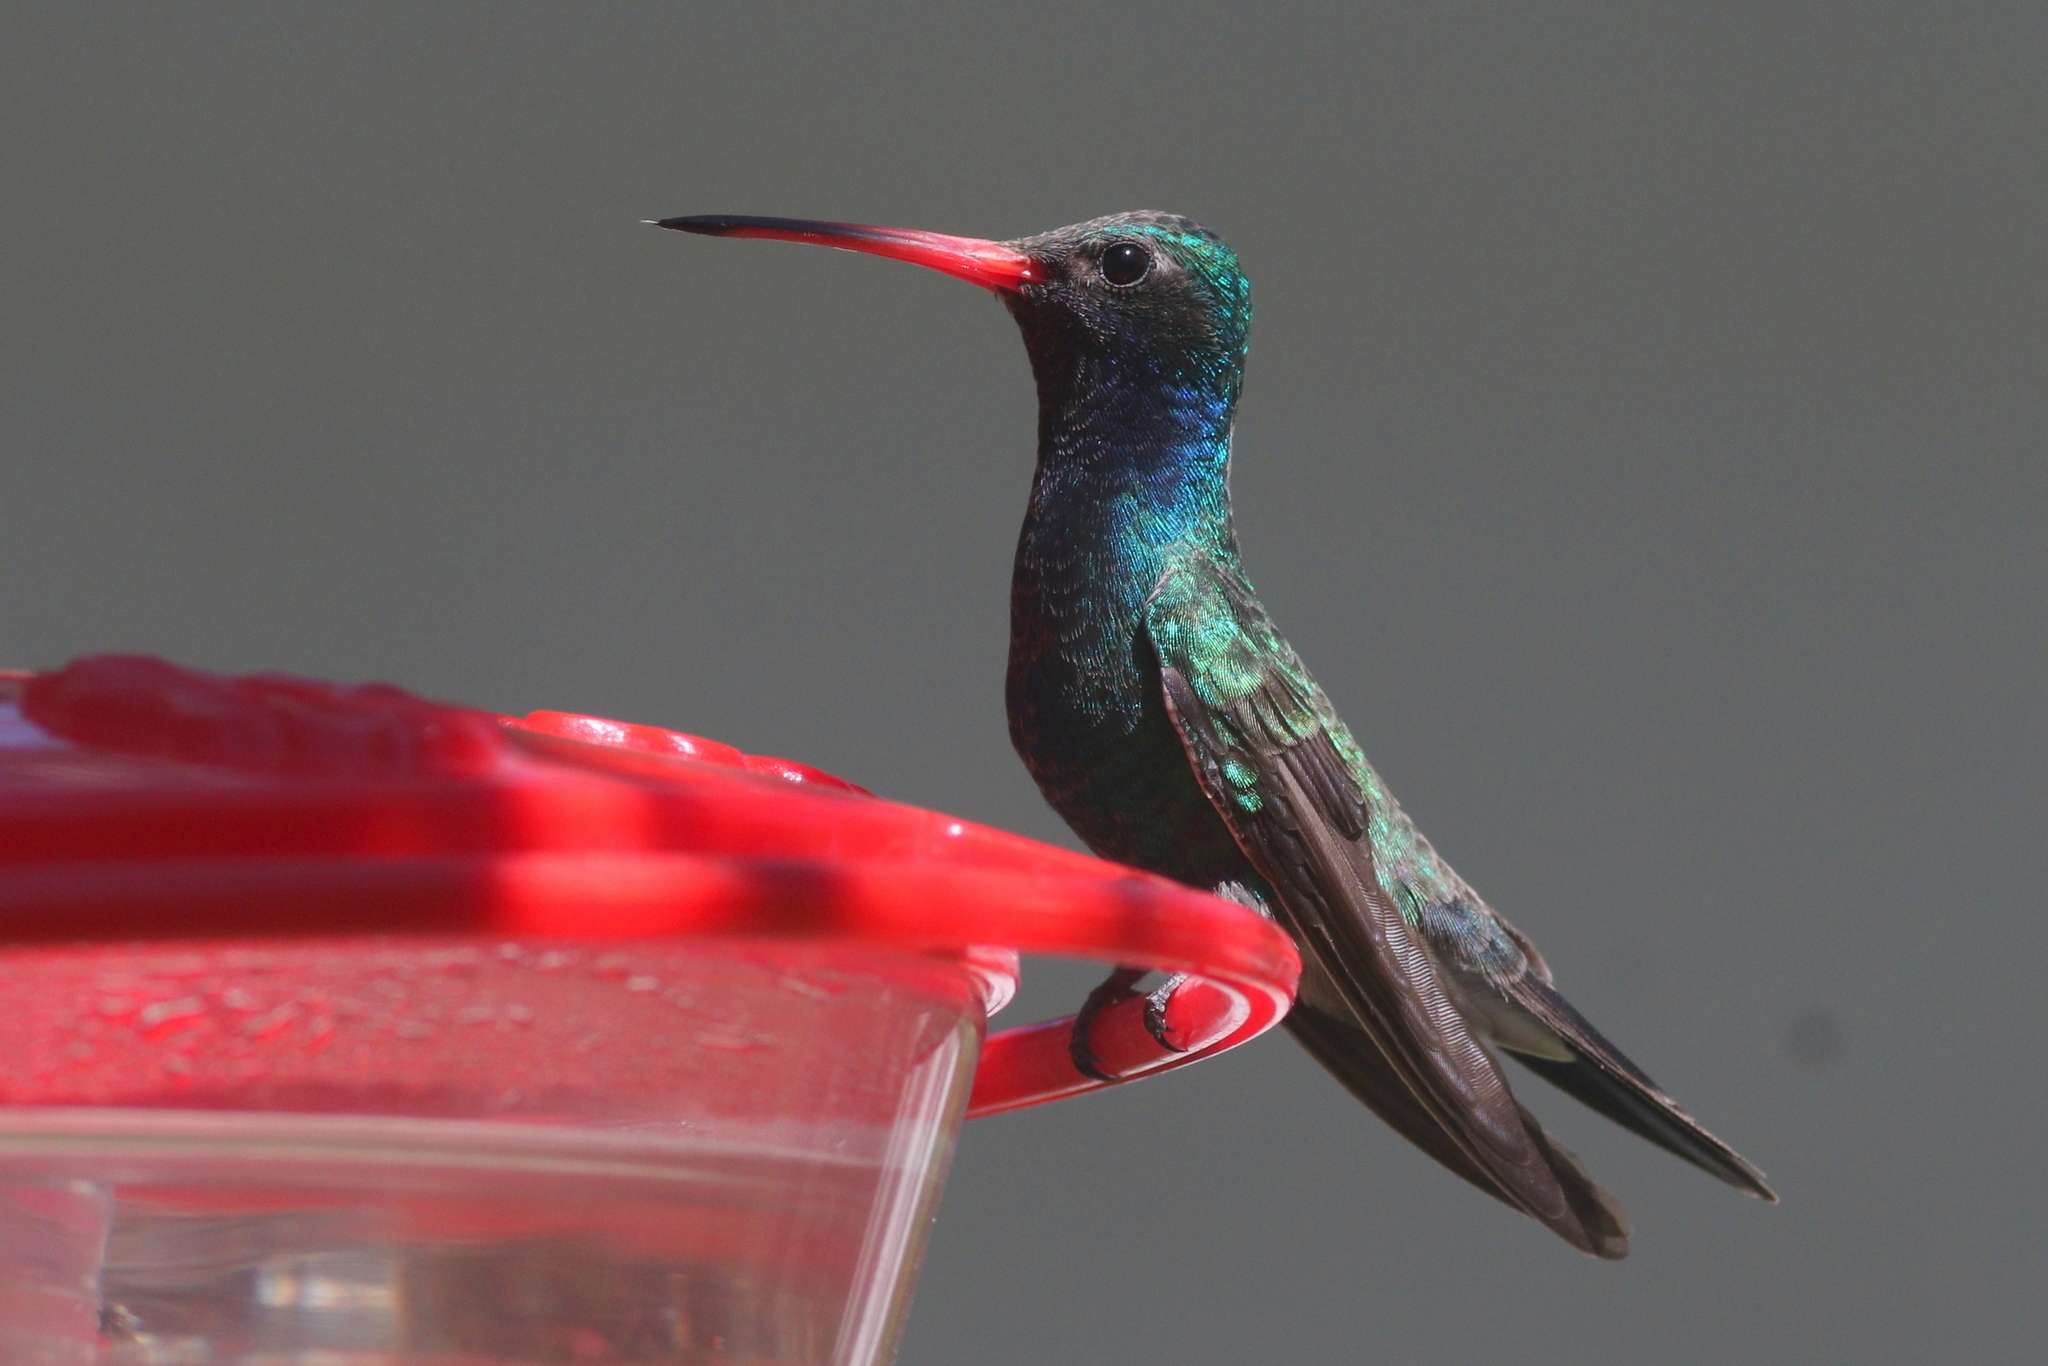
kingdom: Animalia
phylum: Chordata
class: Aves
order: Apodiformes
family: Trochilidae
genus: Cynanthus
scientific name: Cynanthus latirostris
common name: Broad-billed hummingbird
